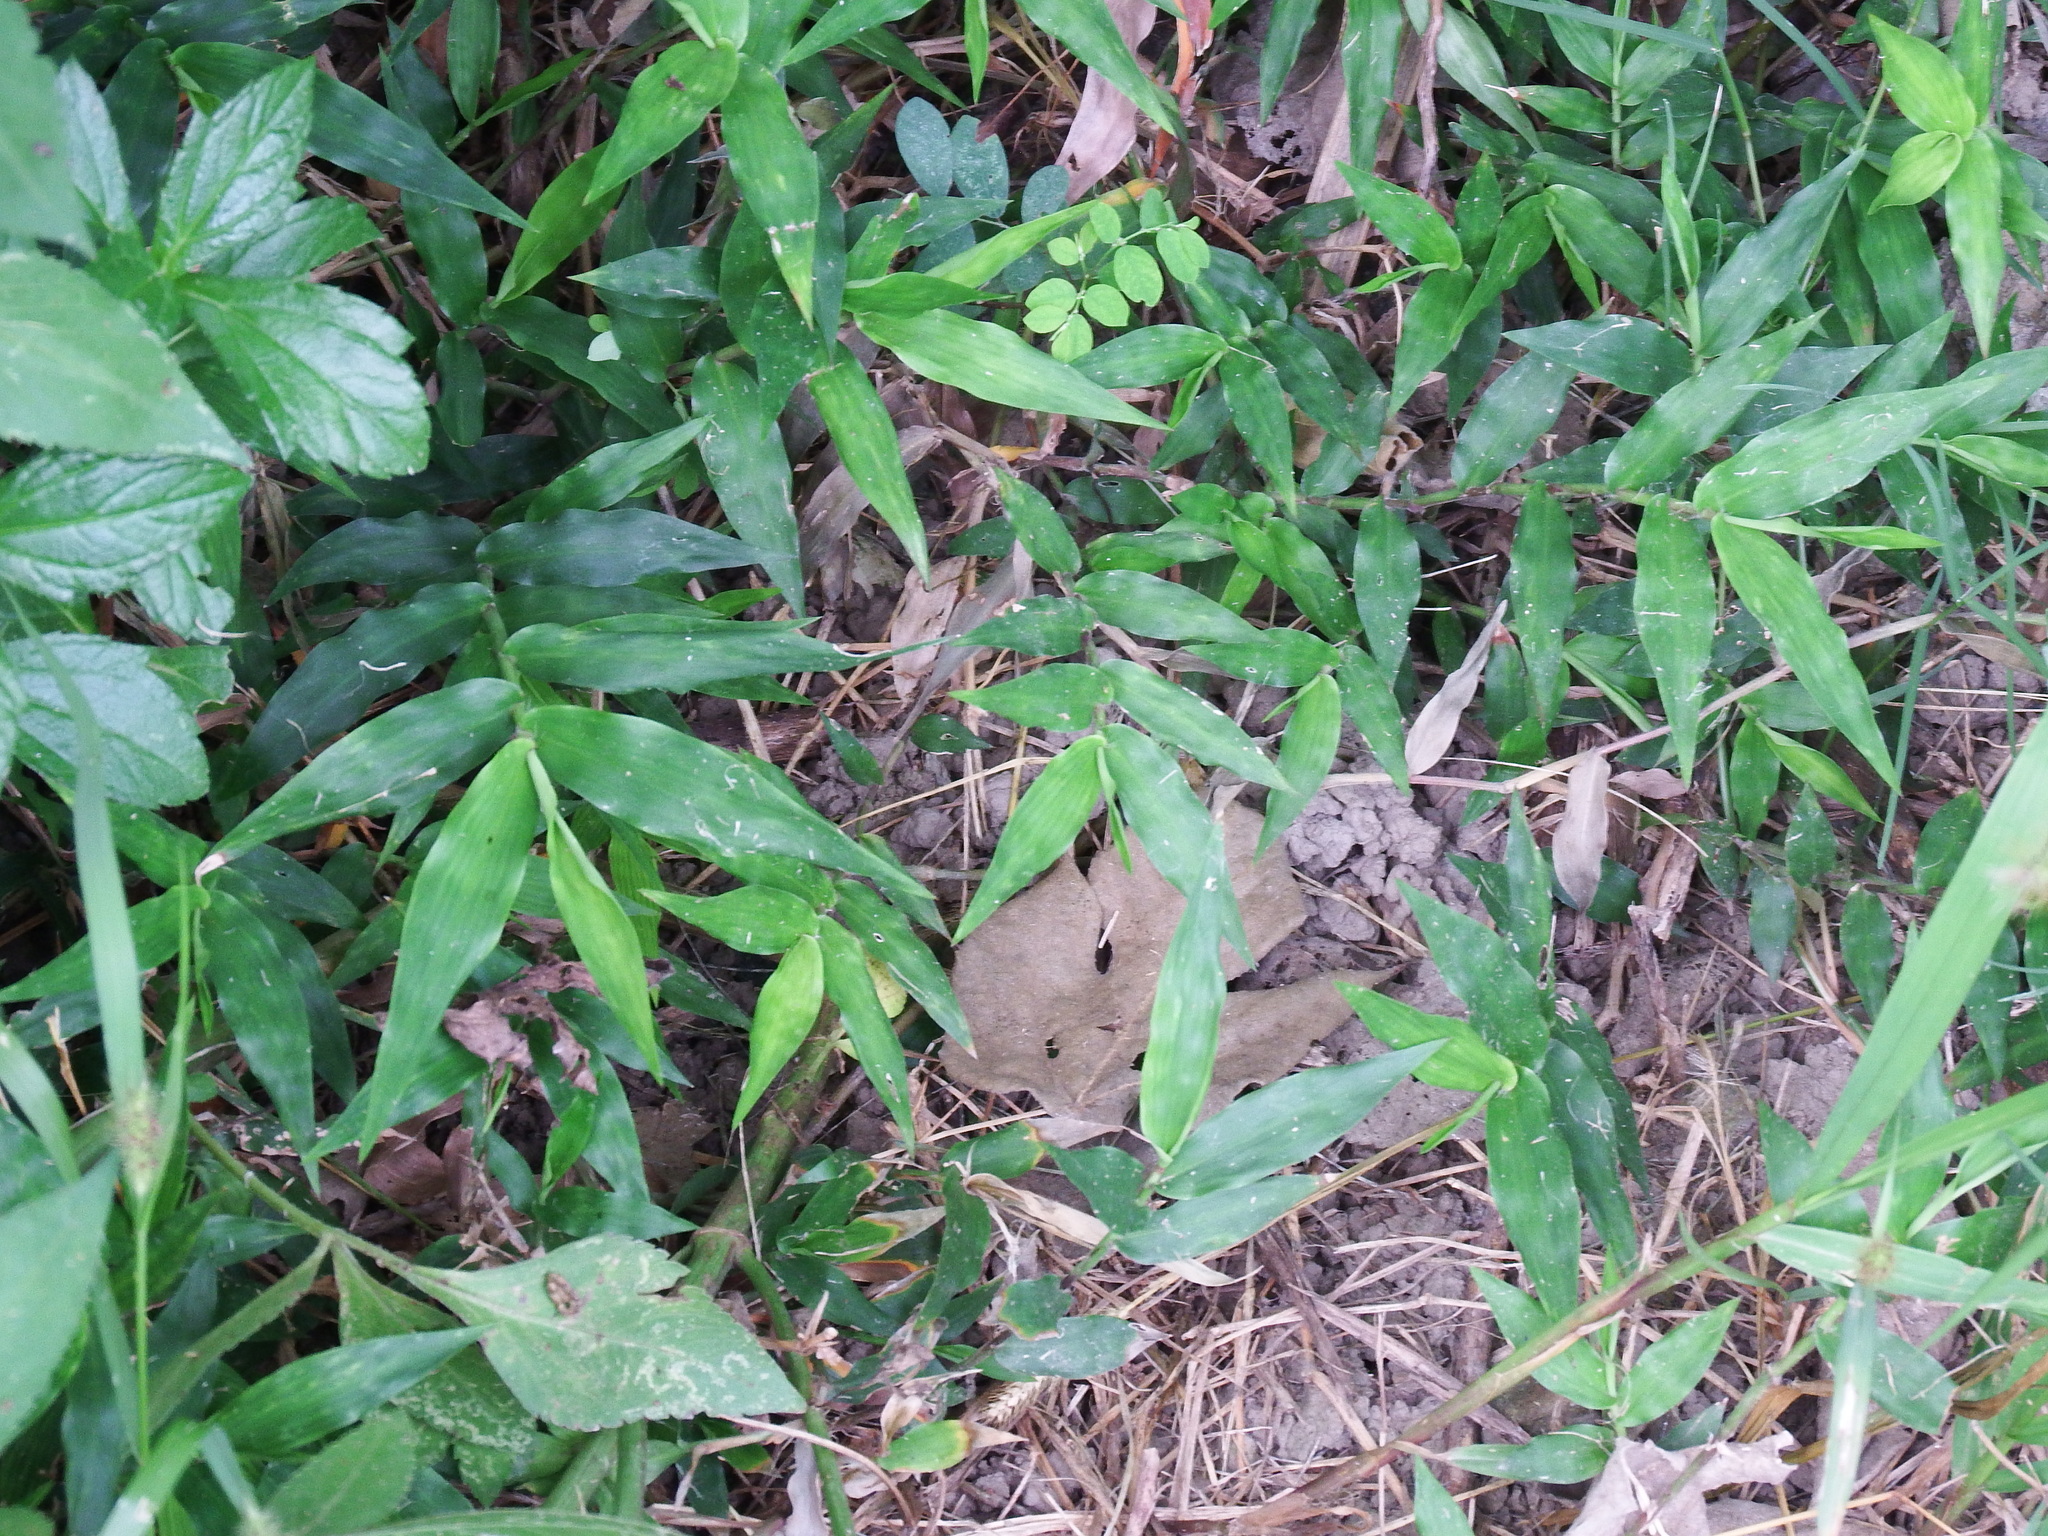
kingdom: Plantae
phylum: Tracheophyta
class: Liliopsida
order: Poales
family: Poaceae
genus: Oplismenus
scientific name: Oplismenus compositus
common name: Running mountain grass
